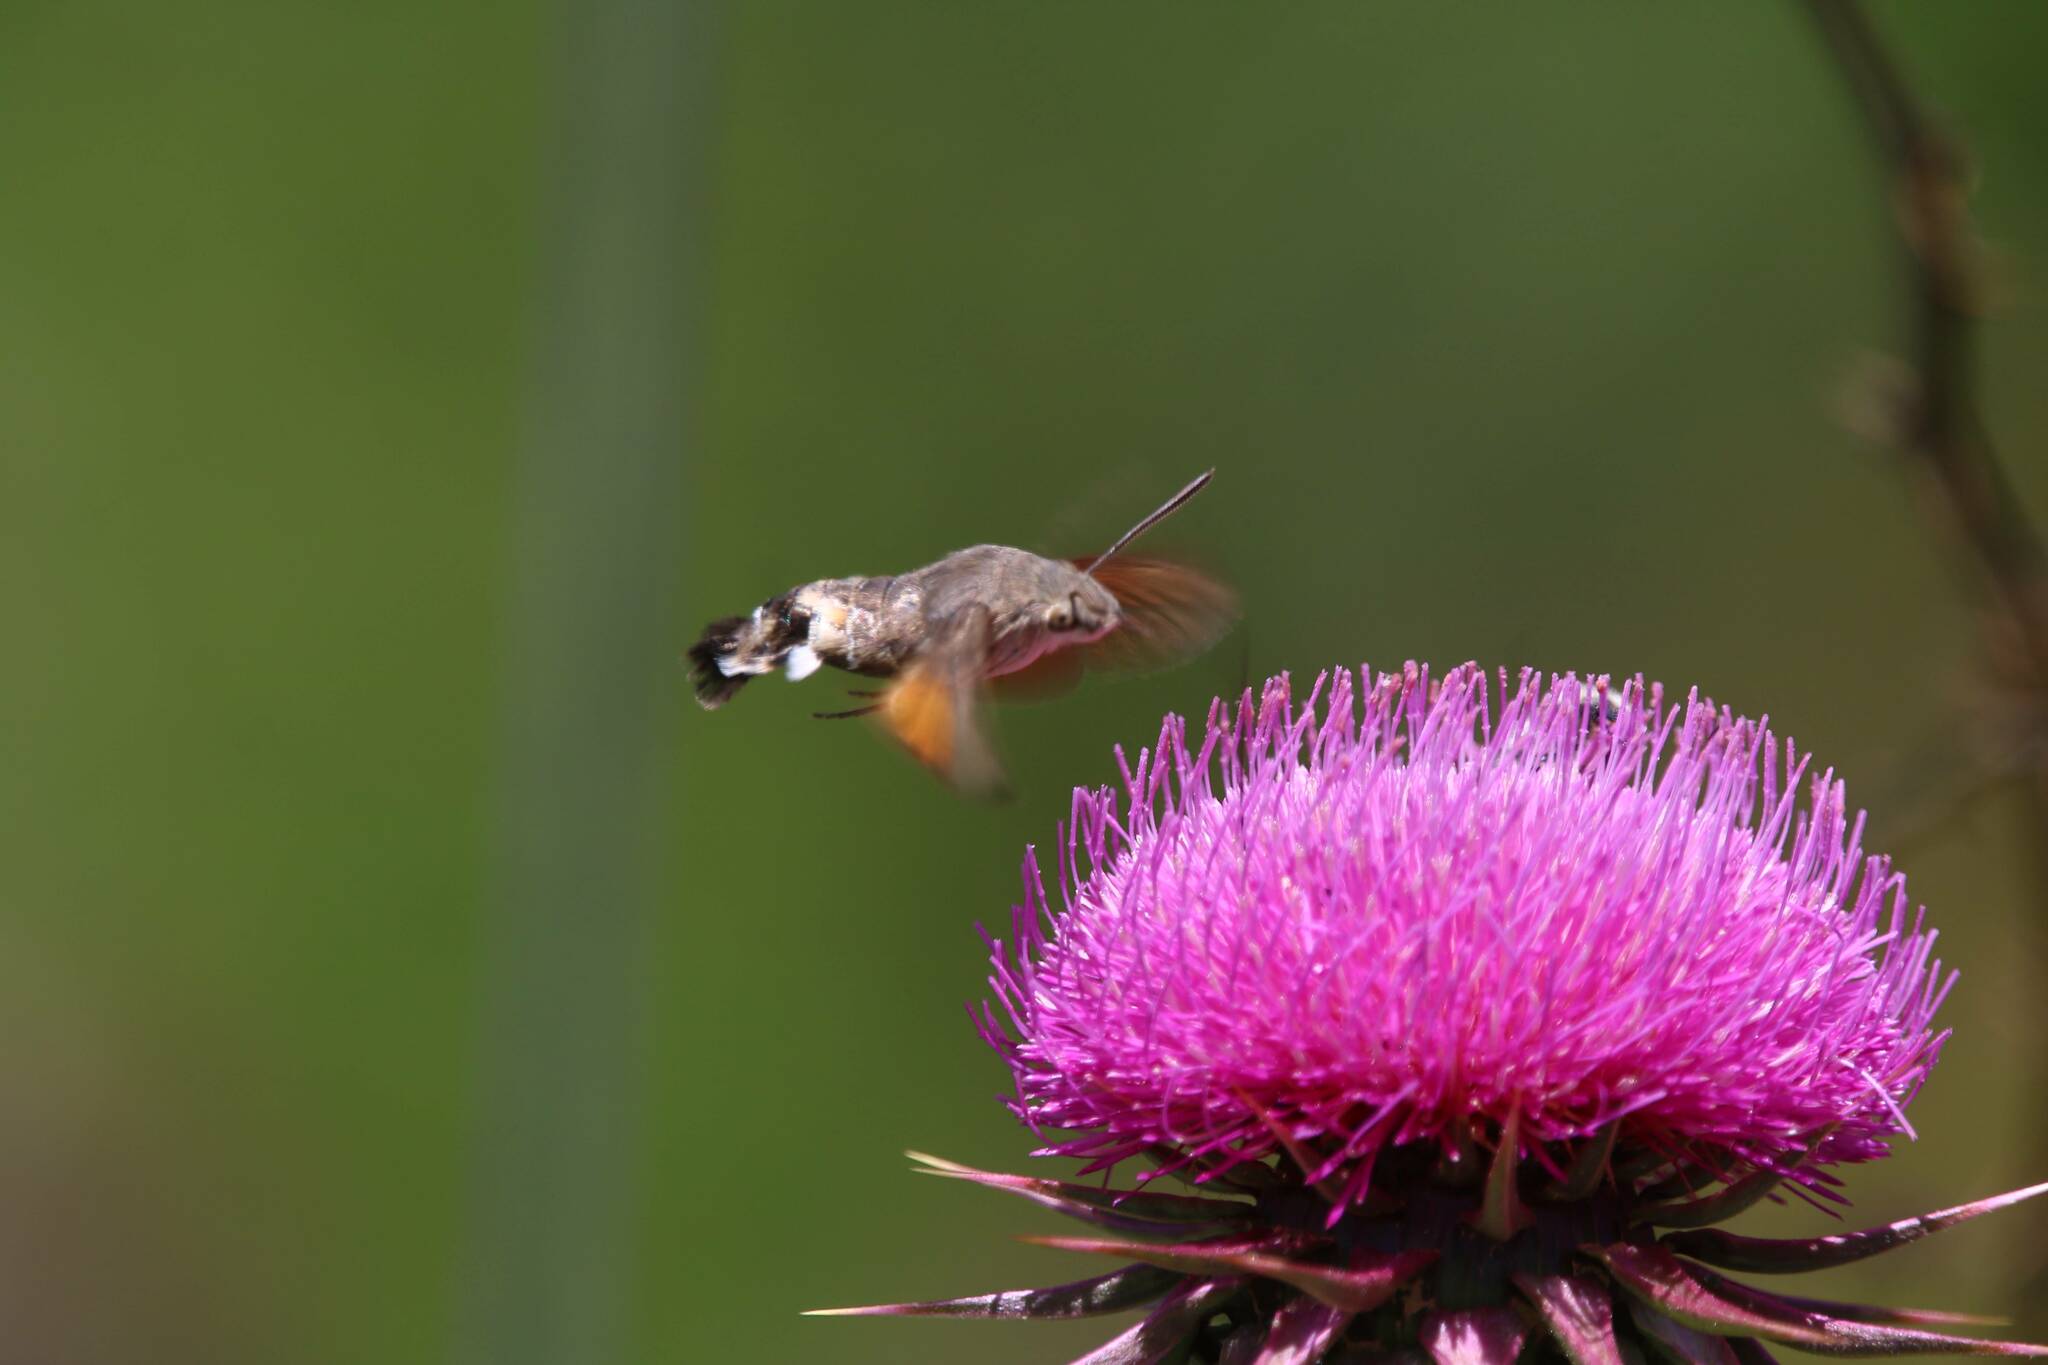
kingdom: Animalia
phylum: Arthropoda
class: Insecta
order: Lepidoptera
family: Sphingidae
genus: Macroglossum
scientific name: Macroglossum stellatarum
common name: Humming-bird hawk-moth
